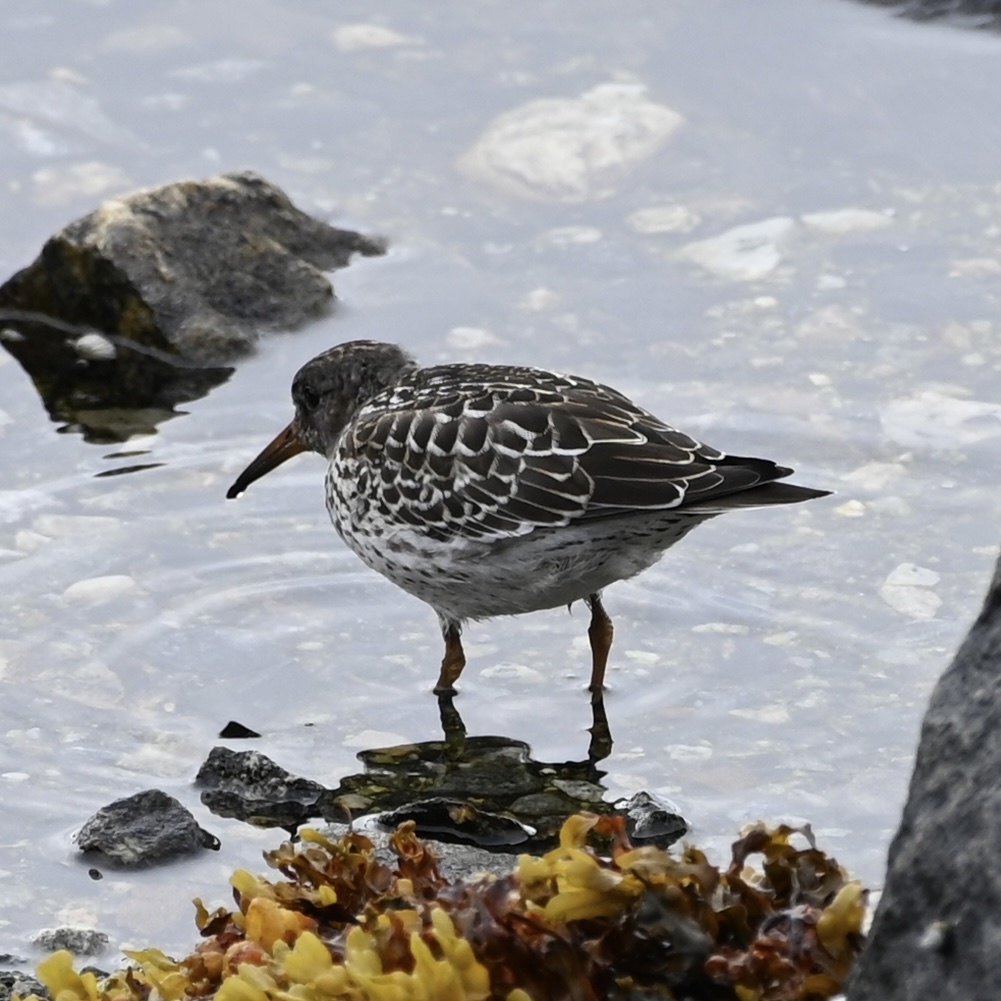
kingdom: Animalia
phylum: Chordata
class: Aves
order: Charadriiformes
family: Scolopacidae
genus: Calidris
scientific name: Calidris maritima
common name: Purple sandpiper
